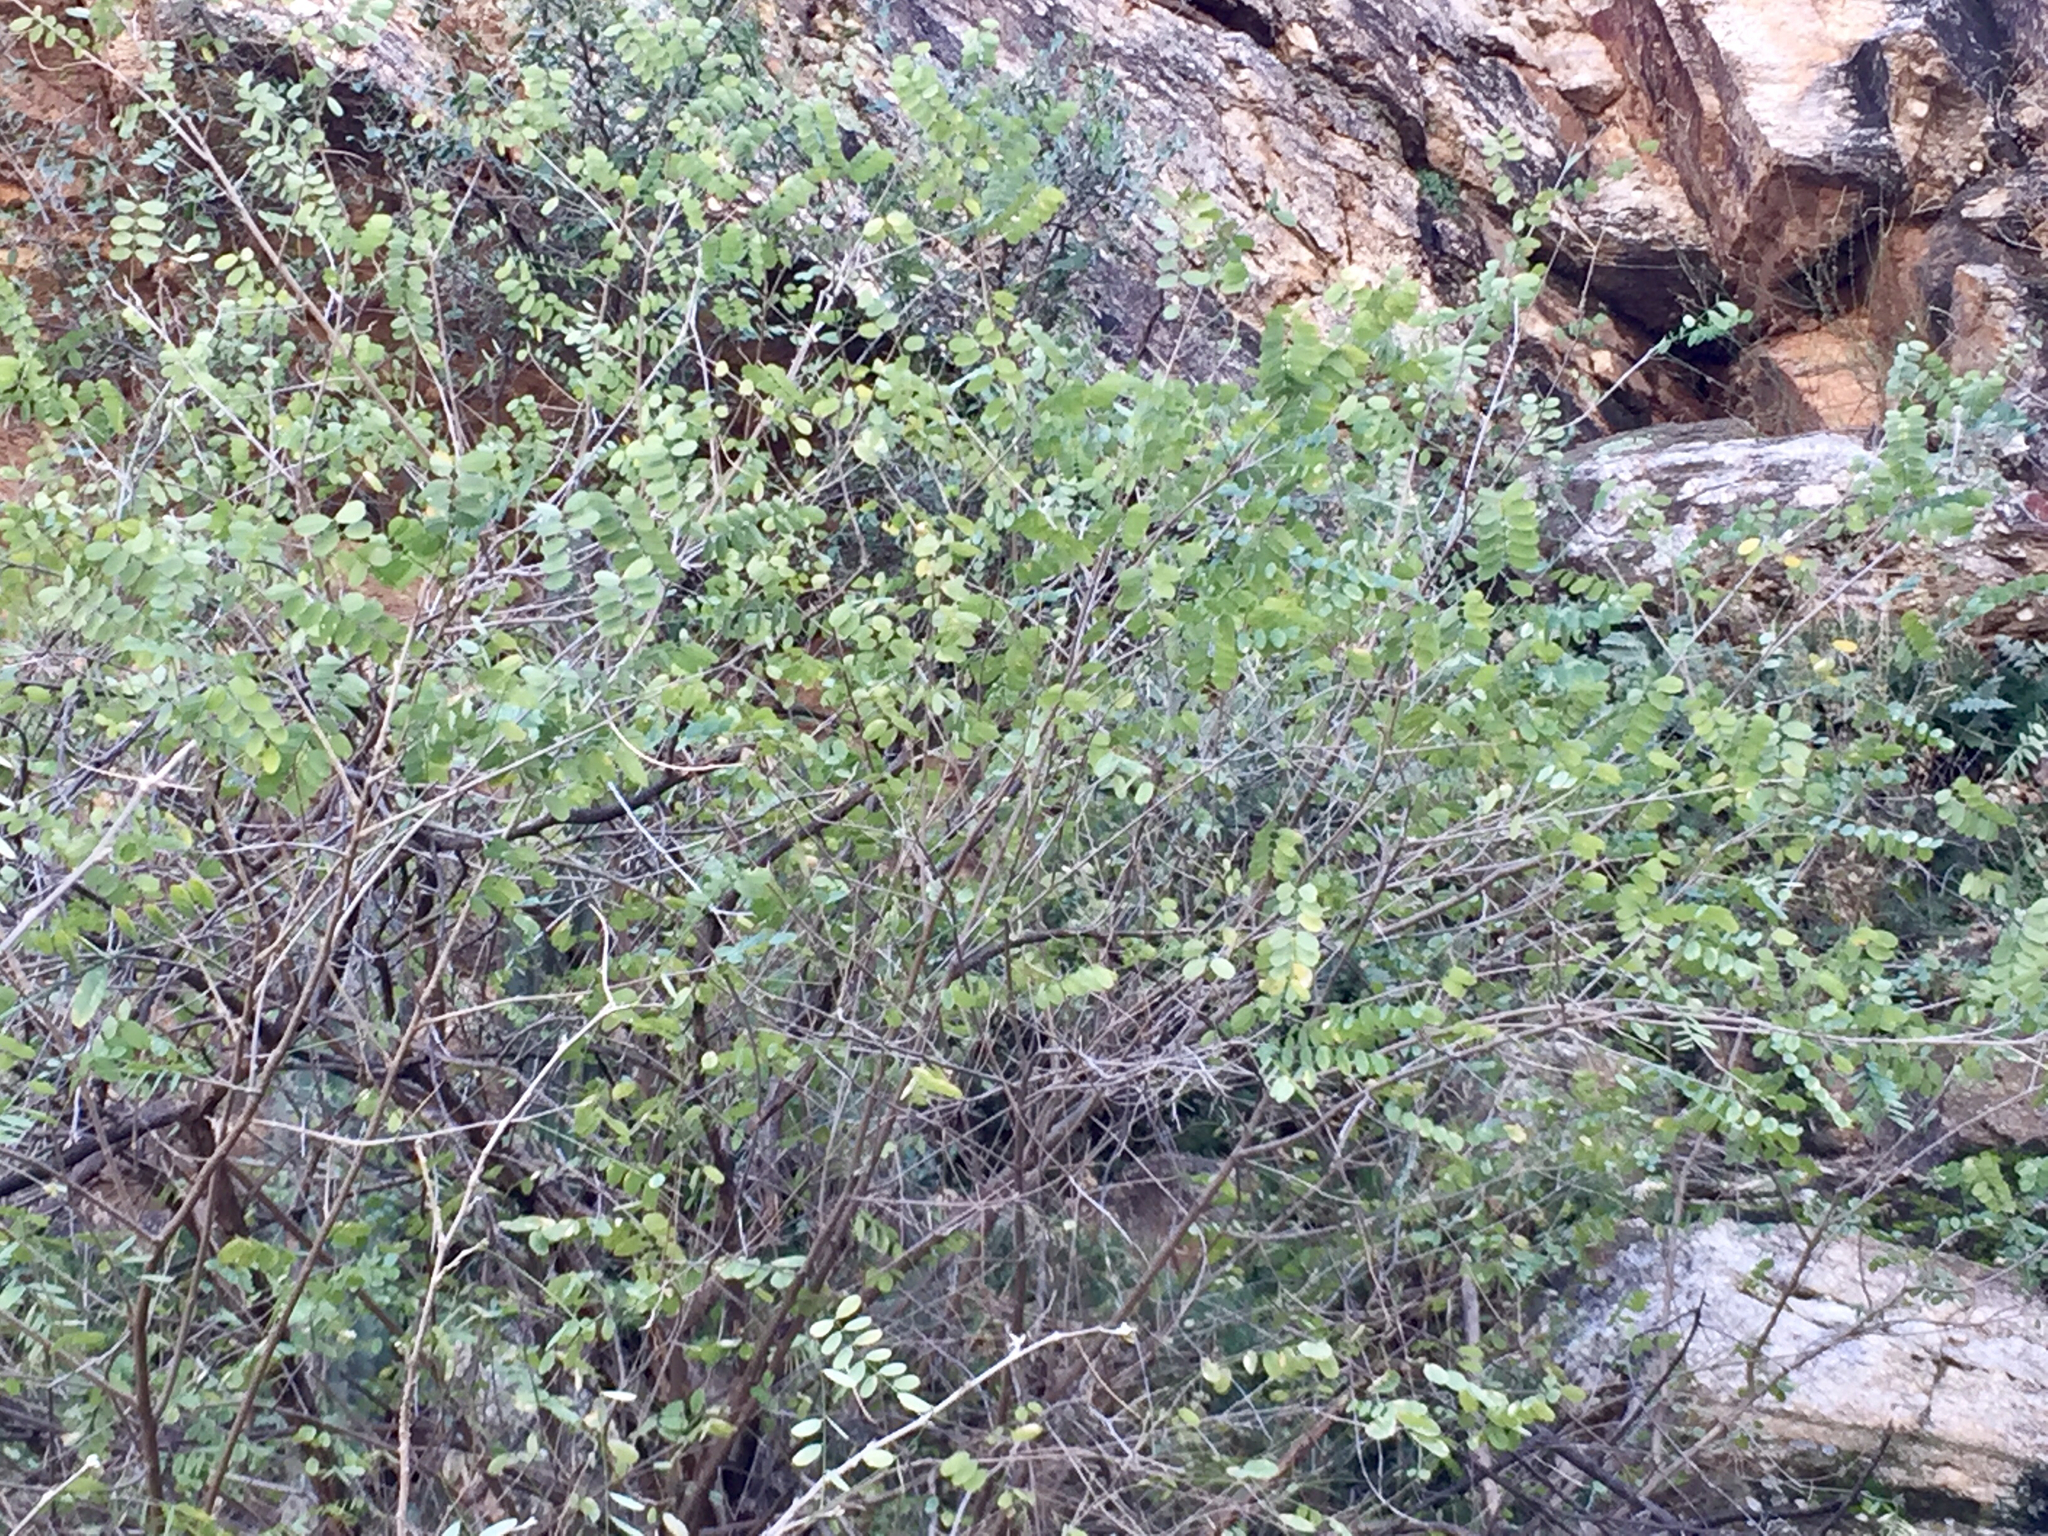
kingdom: Plantae
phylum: Tracheophyta
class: Magnoliopsida
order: Fabales
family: Fabaceae
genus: Coursetia
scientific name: Coursetia glandulosa
